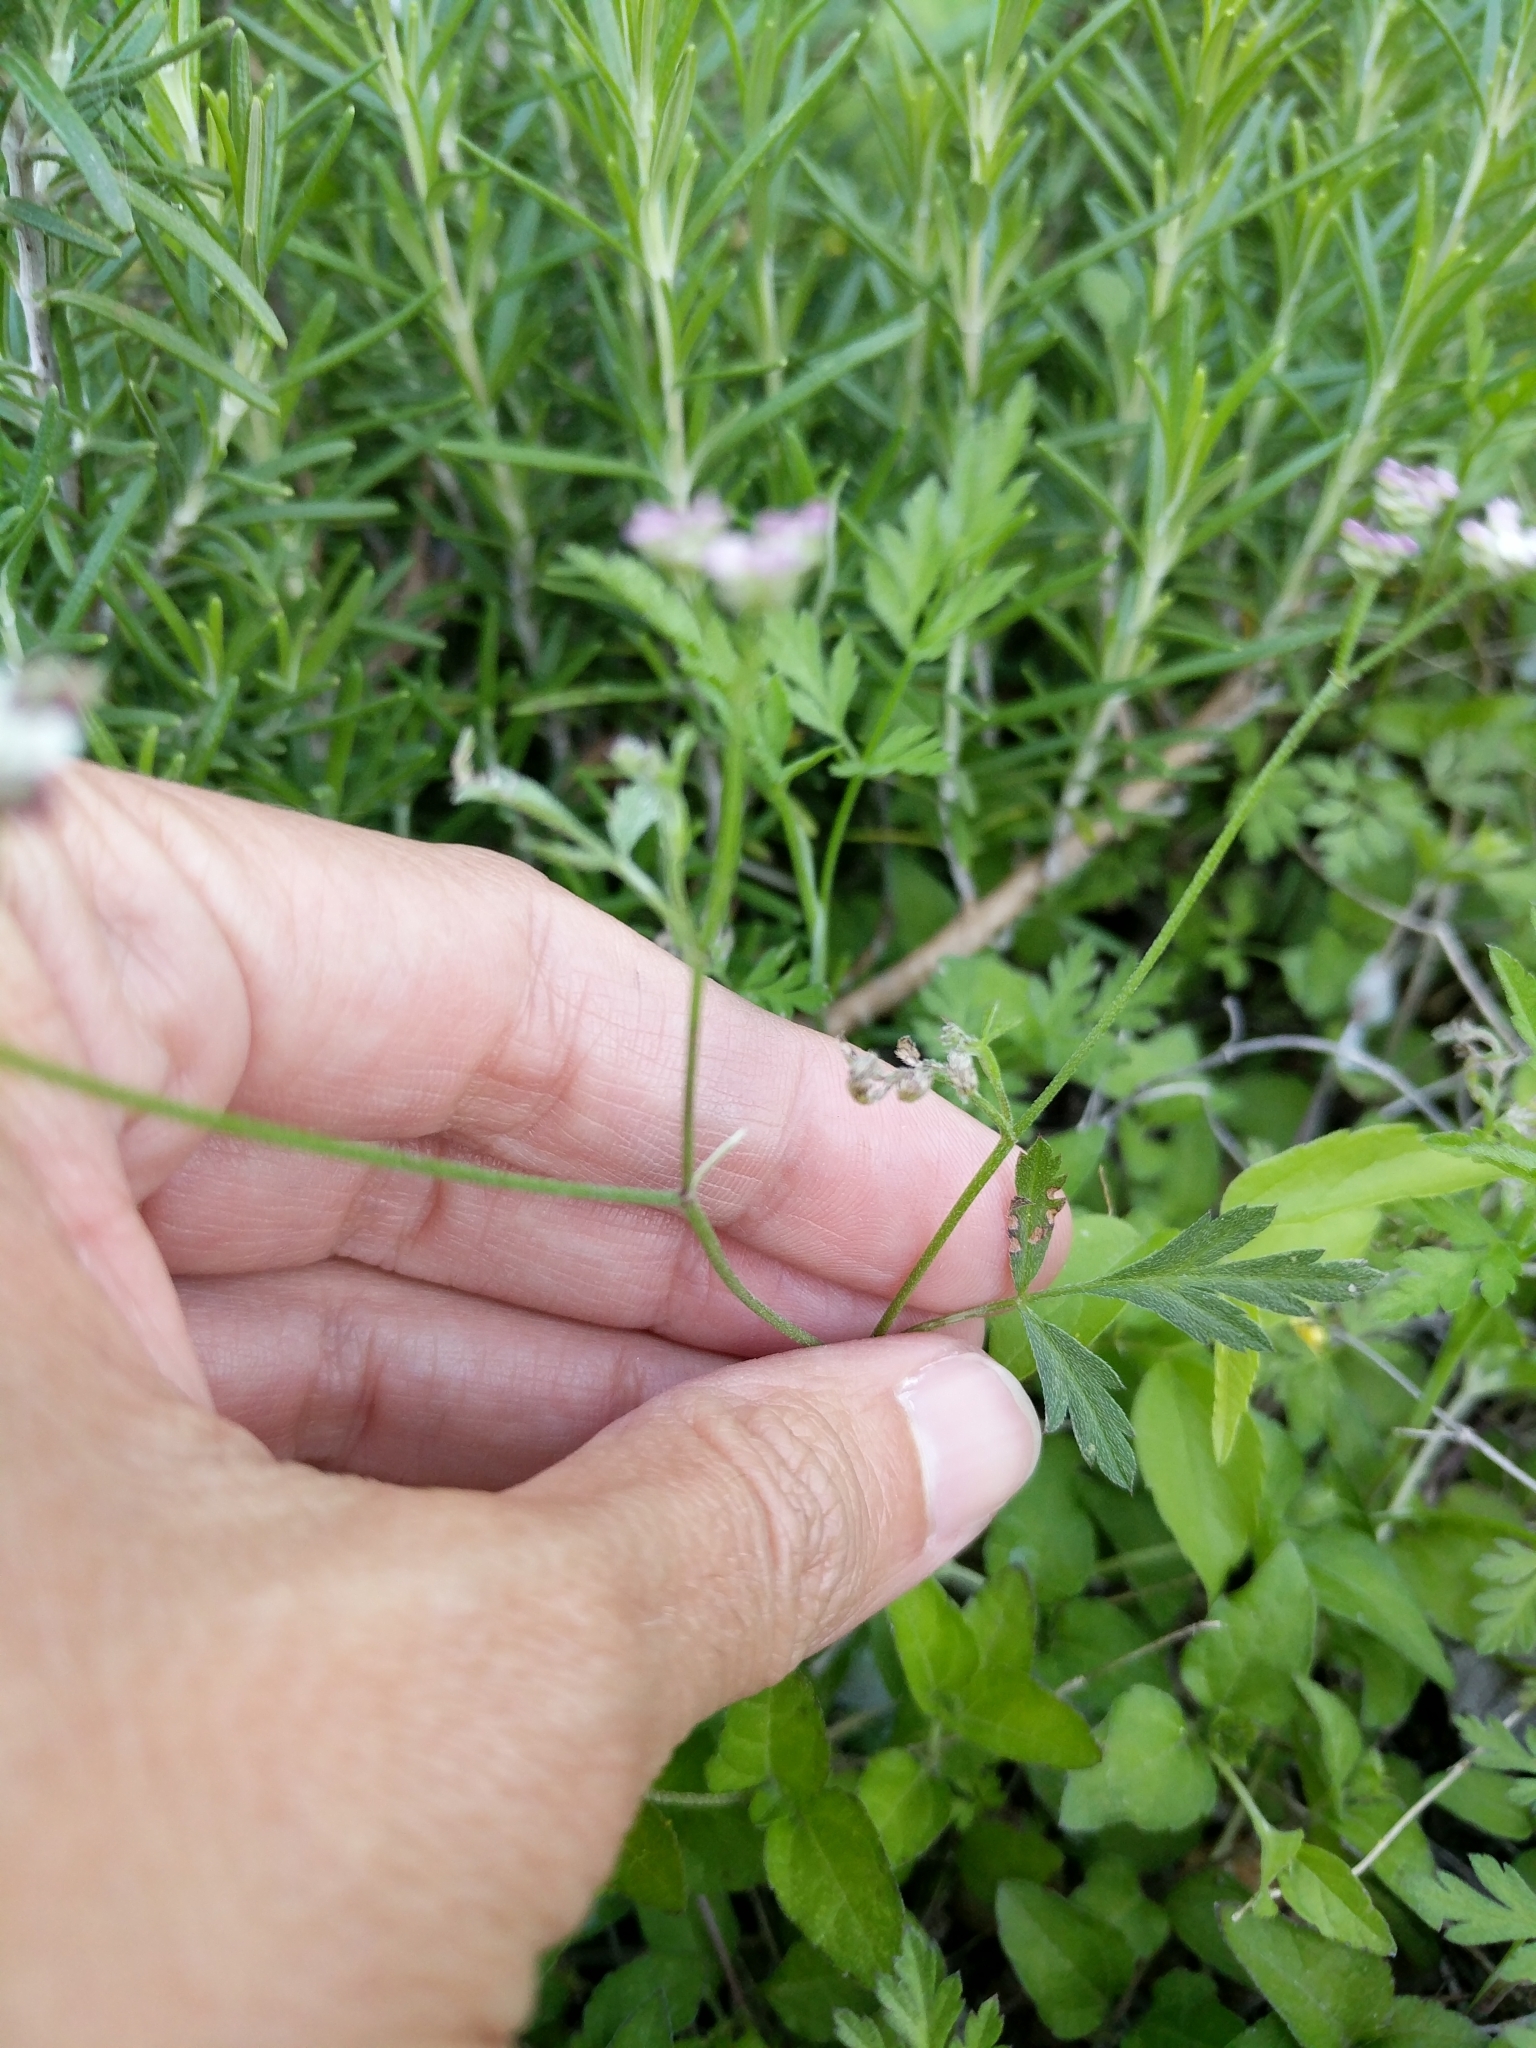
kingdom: Plantae
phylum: Tracheophyta
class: Magnoliopsida
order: Apiales
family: Apiaceae
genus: Torilis
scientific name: Torilis arvensis
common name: Spreading hedge-parsley
